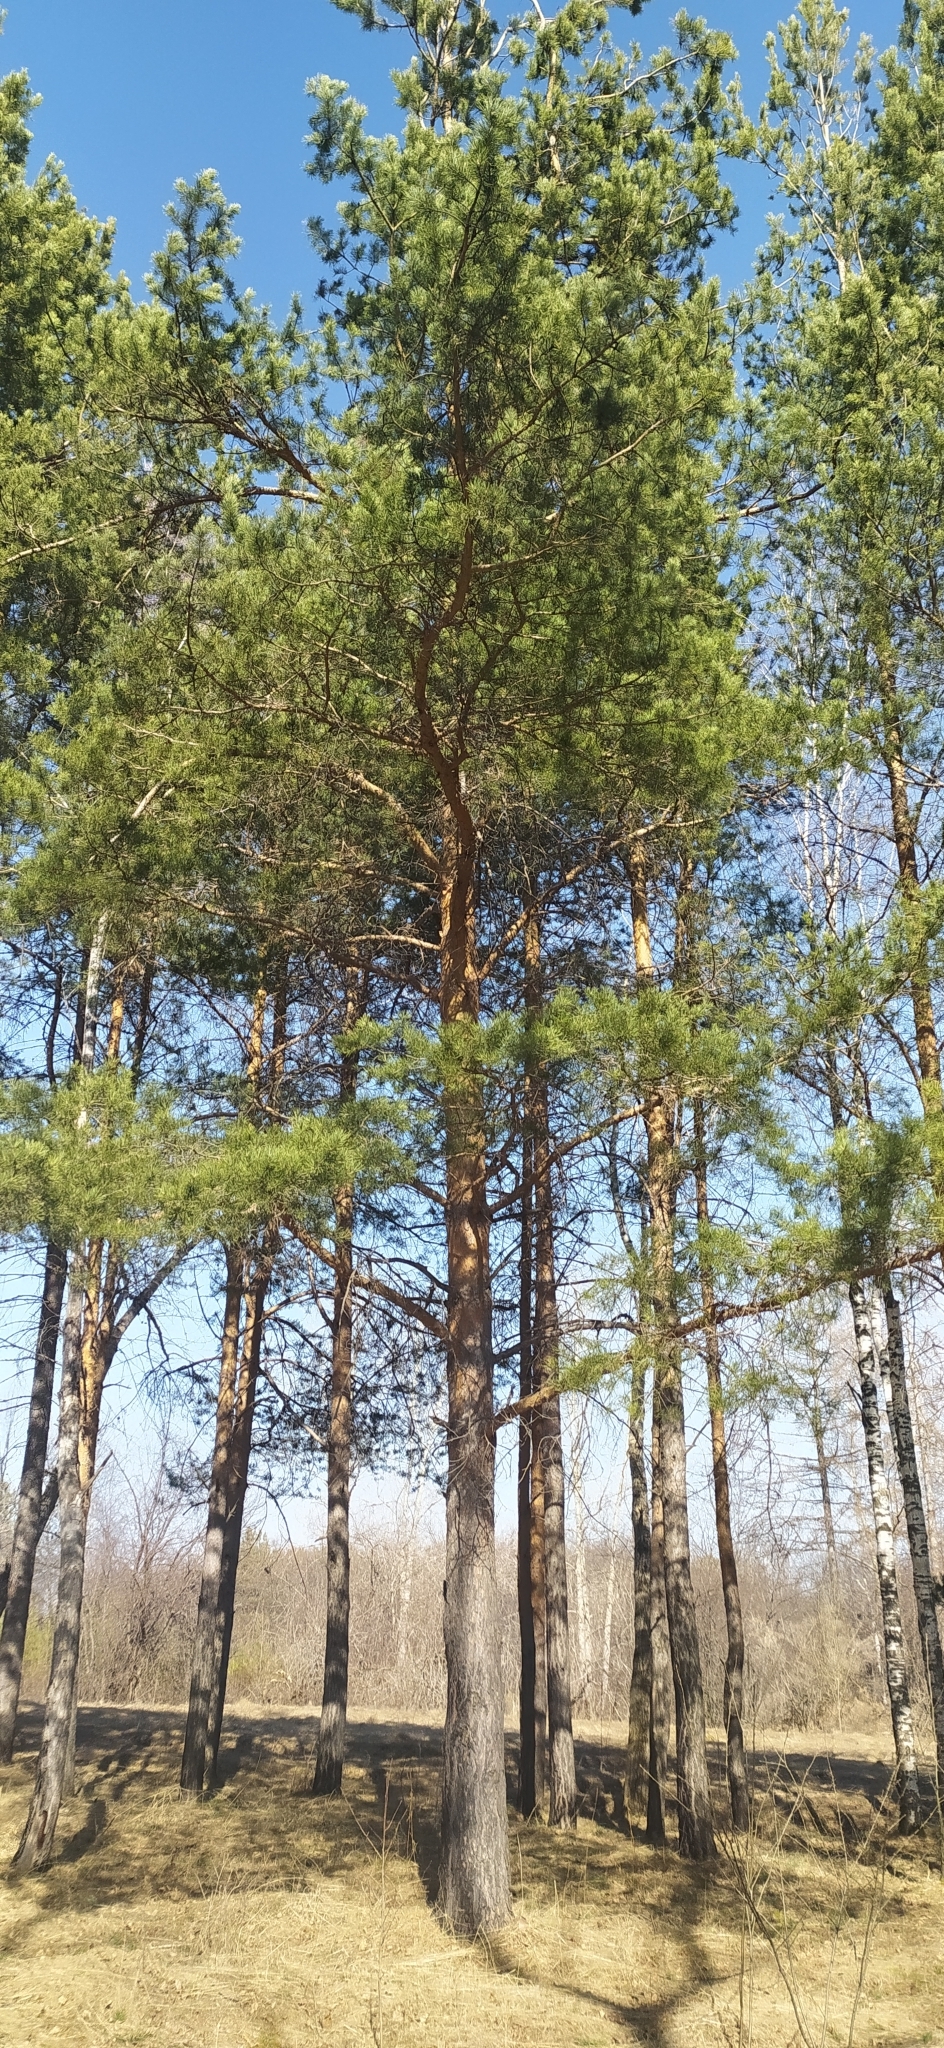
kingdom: Plantae
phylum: Tracheophyta
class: Pinopsida
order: Pinales
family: Pinaceae
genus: Pinus
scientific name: Pinus sylvestris
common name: Scots pine
